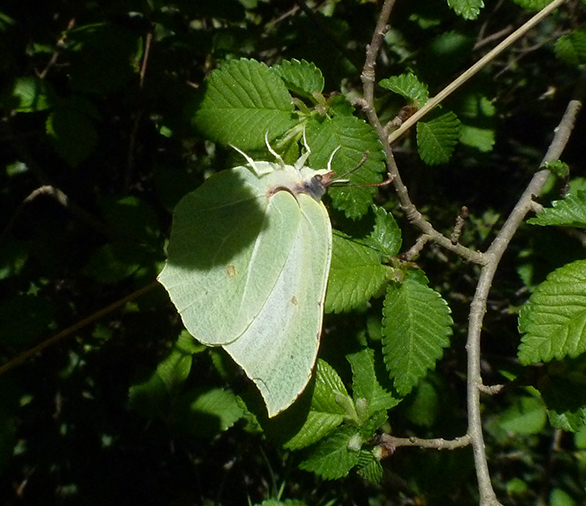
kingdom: Animalia
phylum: Arthropoda
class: Insecta
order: Lepidoptera
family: Pieridae
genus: Gonepteryx
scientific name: Gonepteryx rhamni
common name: Brimstone
